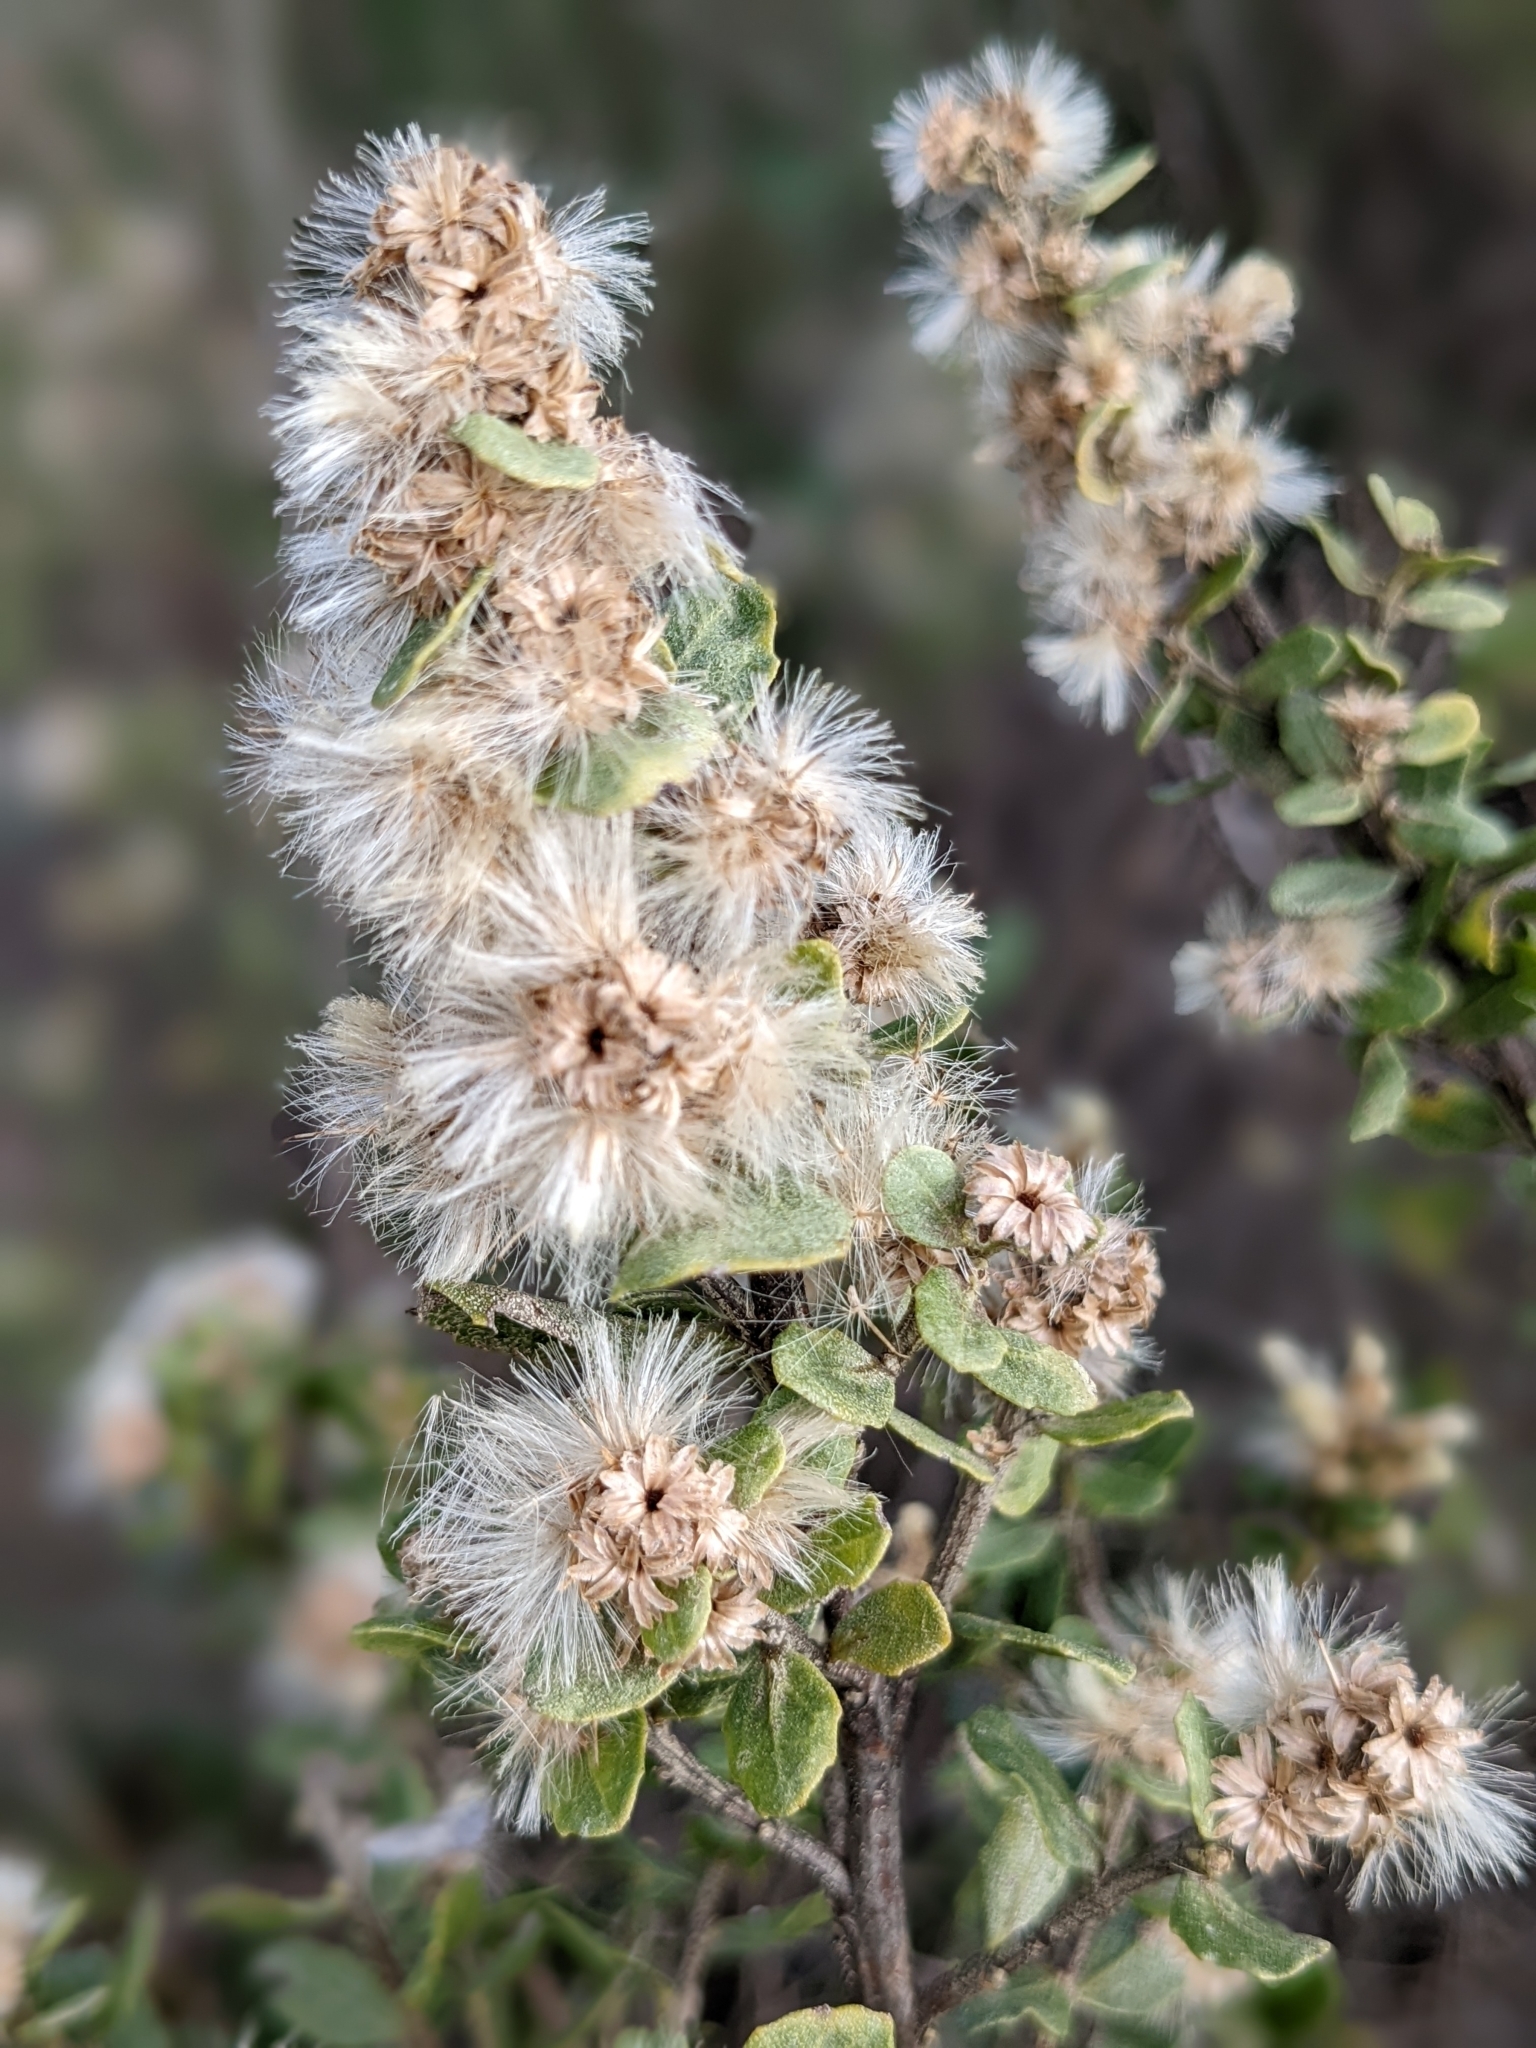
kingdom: Plantae
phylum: Tracheophyta
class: Magnoliopsida
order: Asterales
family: Asteraceae
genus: Baccharis
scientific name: Baccharis pilularis
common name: Coyotebrush
